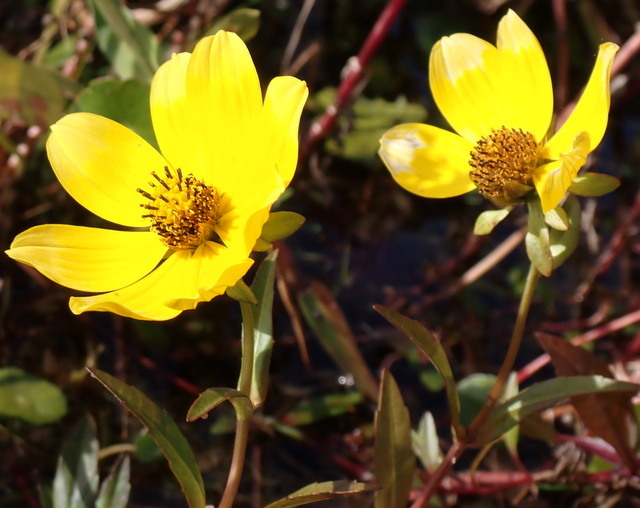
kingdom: Plantae
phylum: Tracheophyta
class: Magnoliopsida
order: Asterales
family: Asteraceae
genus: Bidens
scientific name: Bidens laevis
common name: Larger bur-marigold
